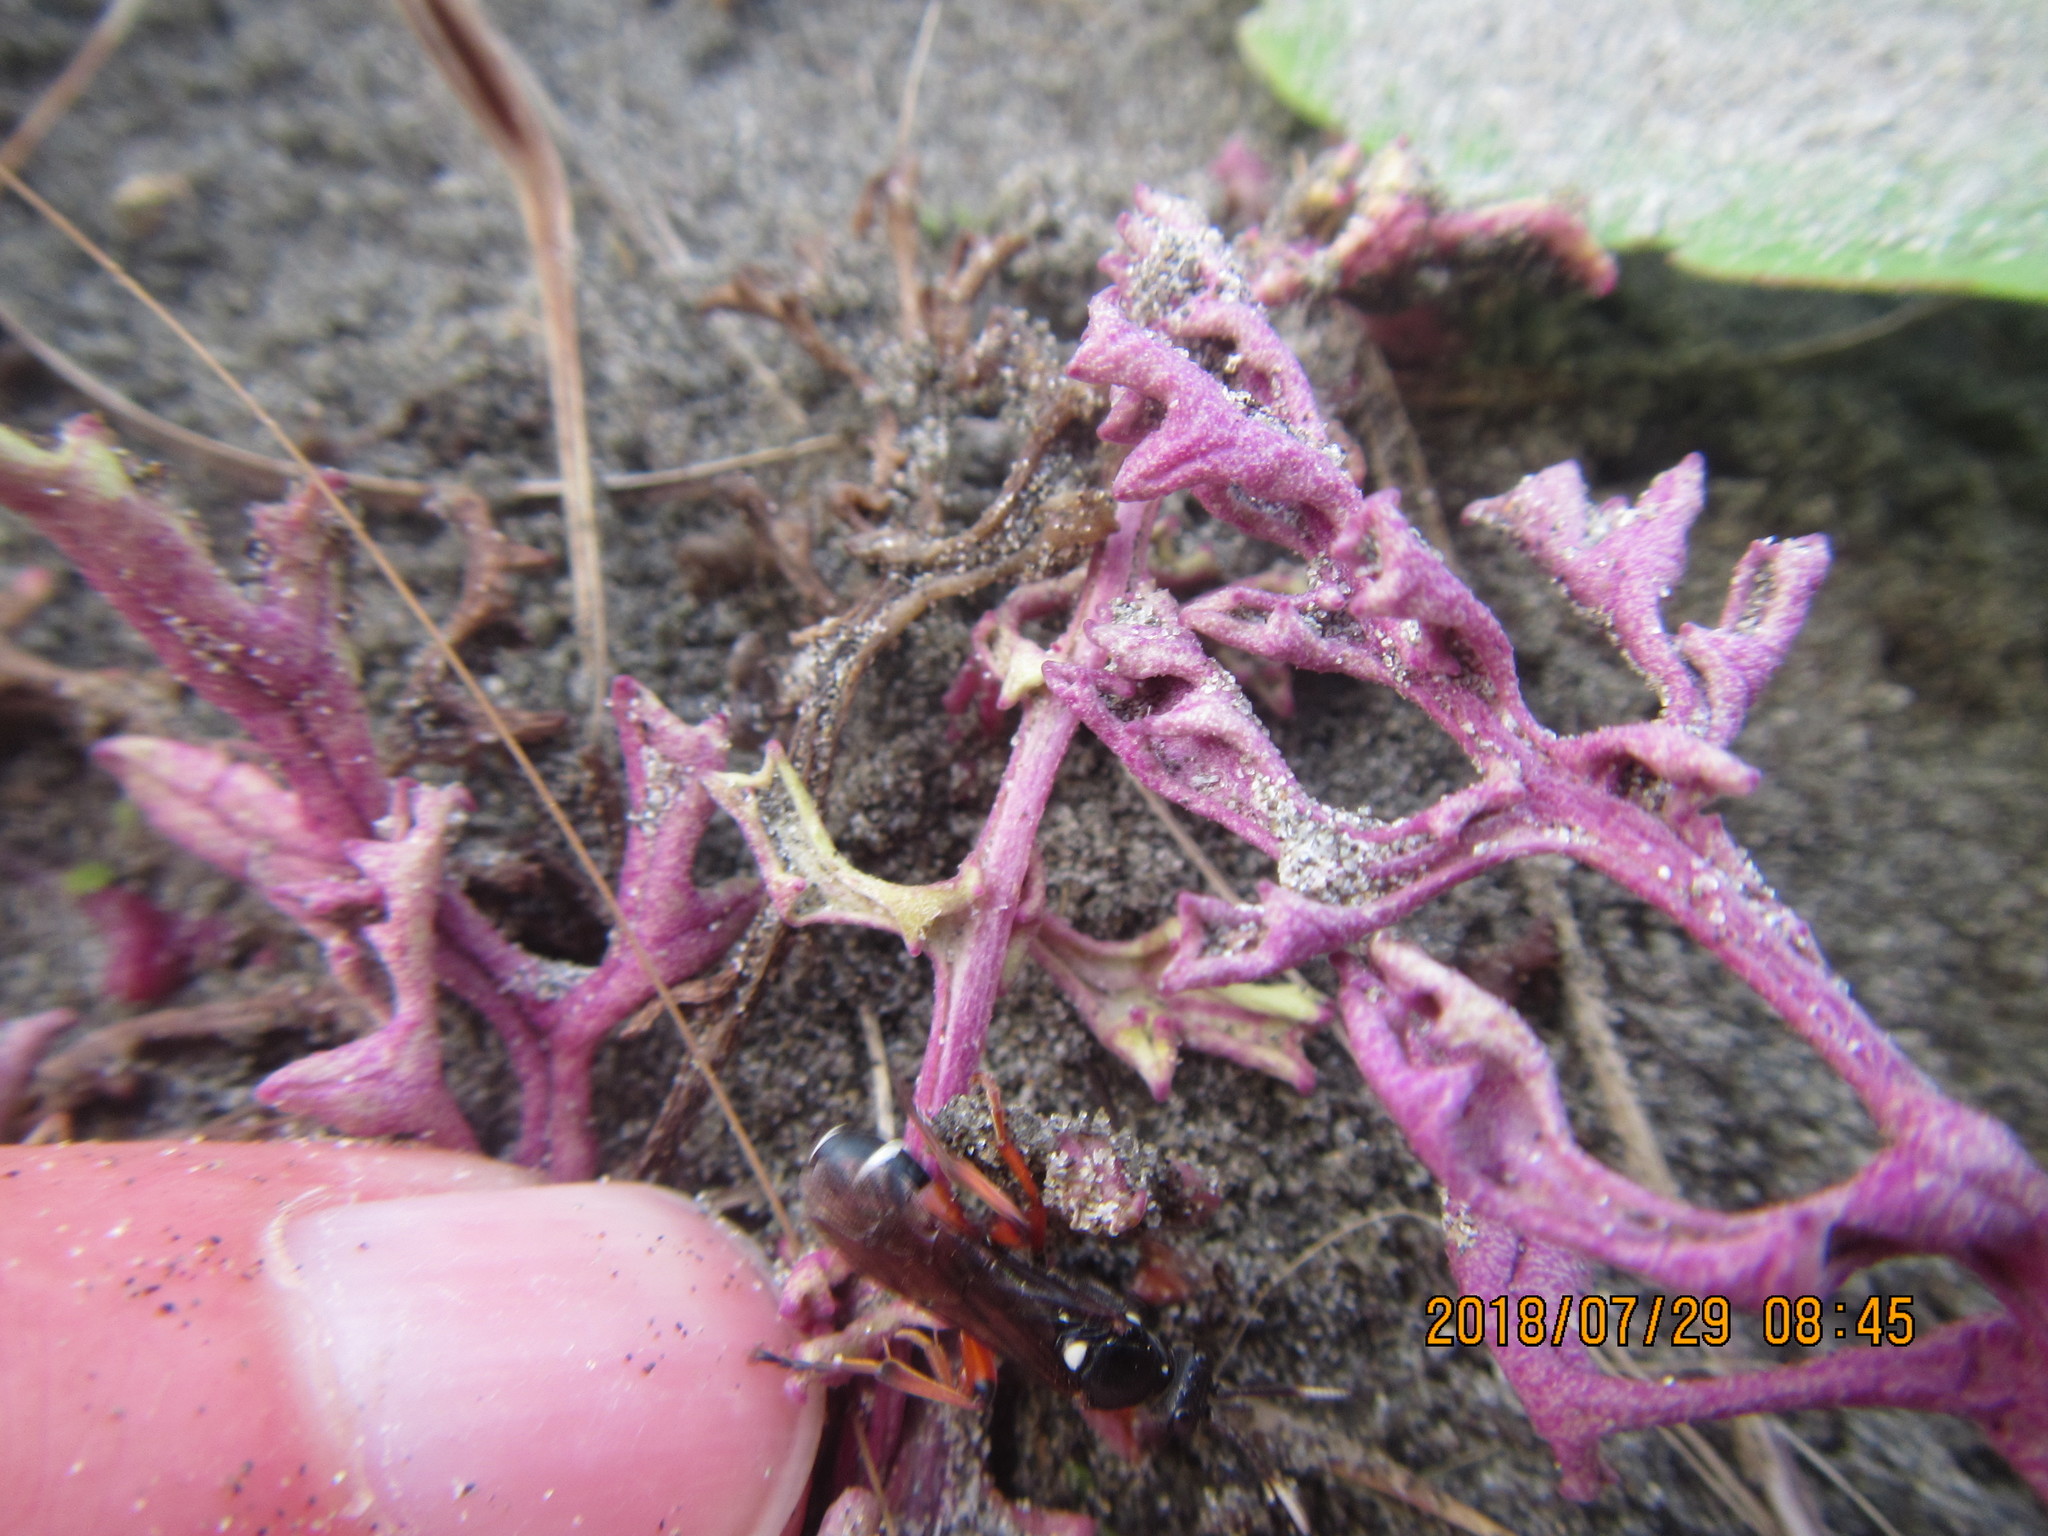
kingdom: Animalia
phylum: Arthropoda
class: Insecta
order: Hymenoptera
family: Ichneumonidae
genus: Ichneumon
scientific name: Ichneumon promissorius
